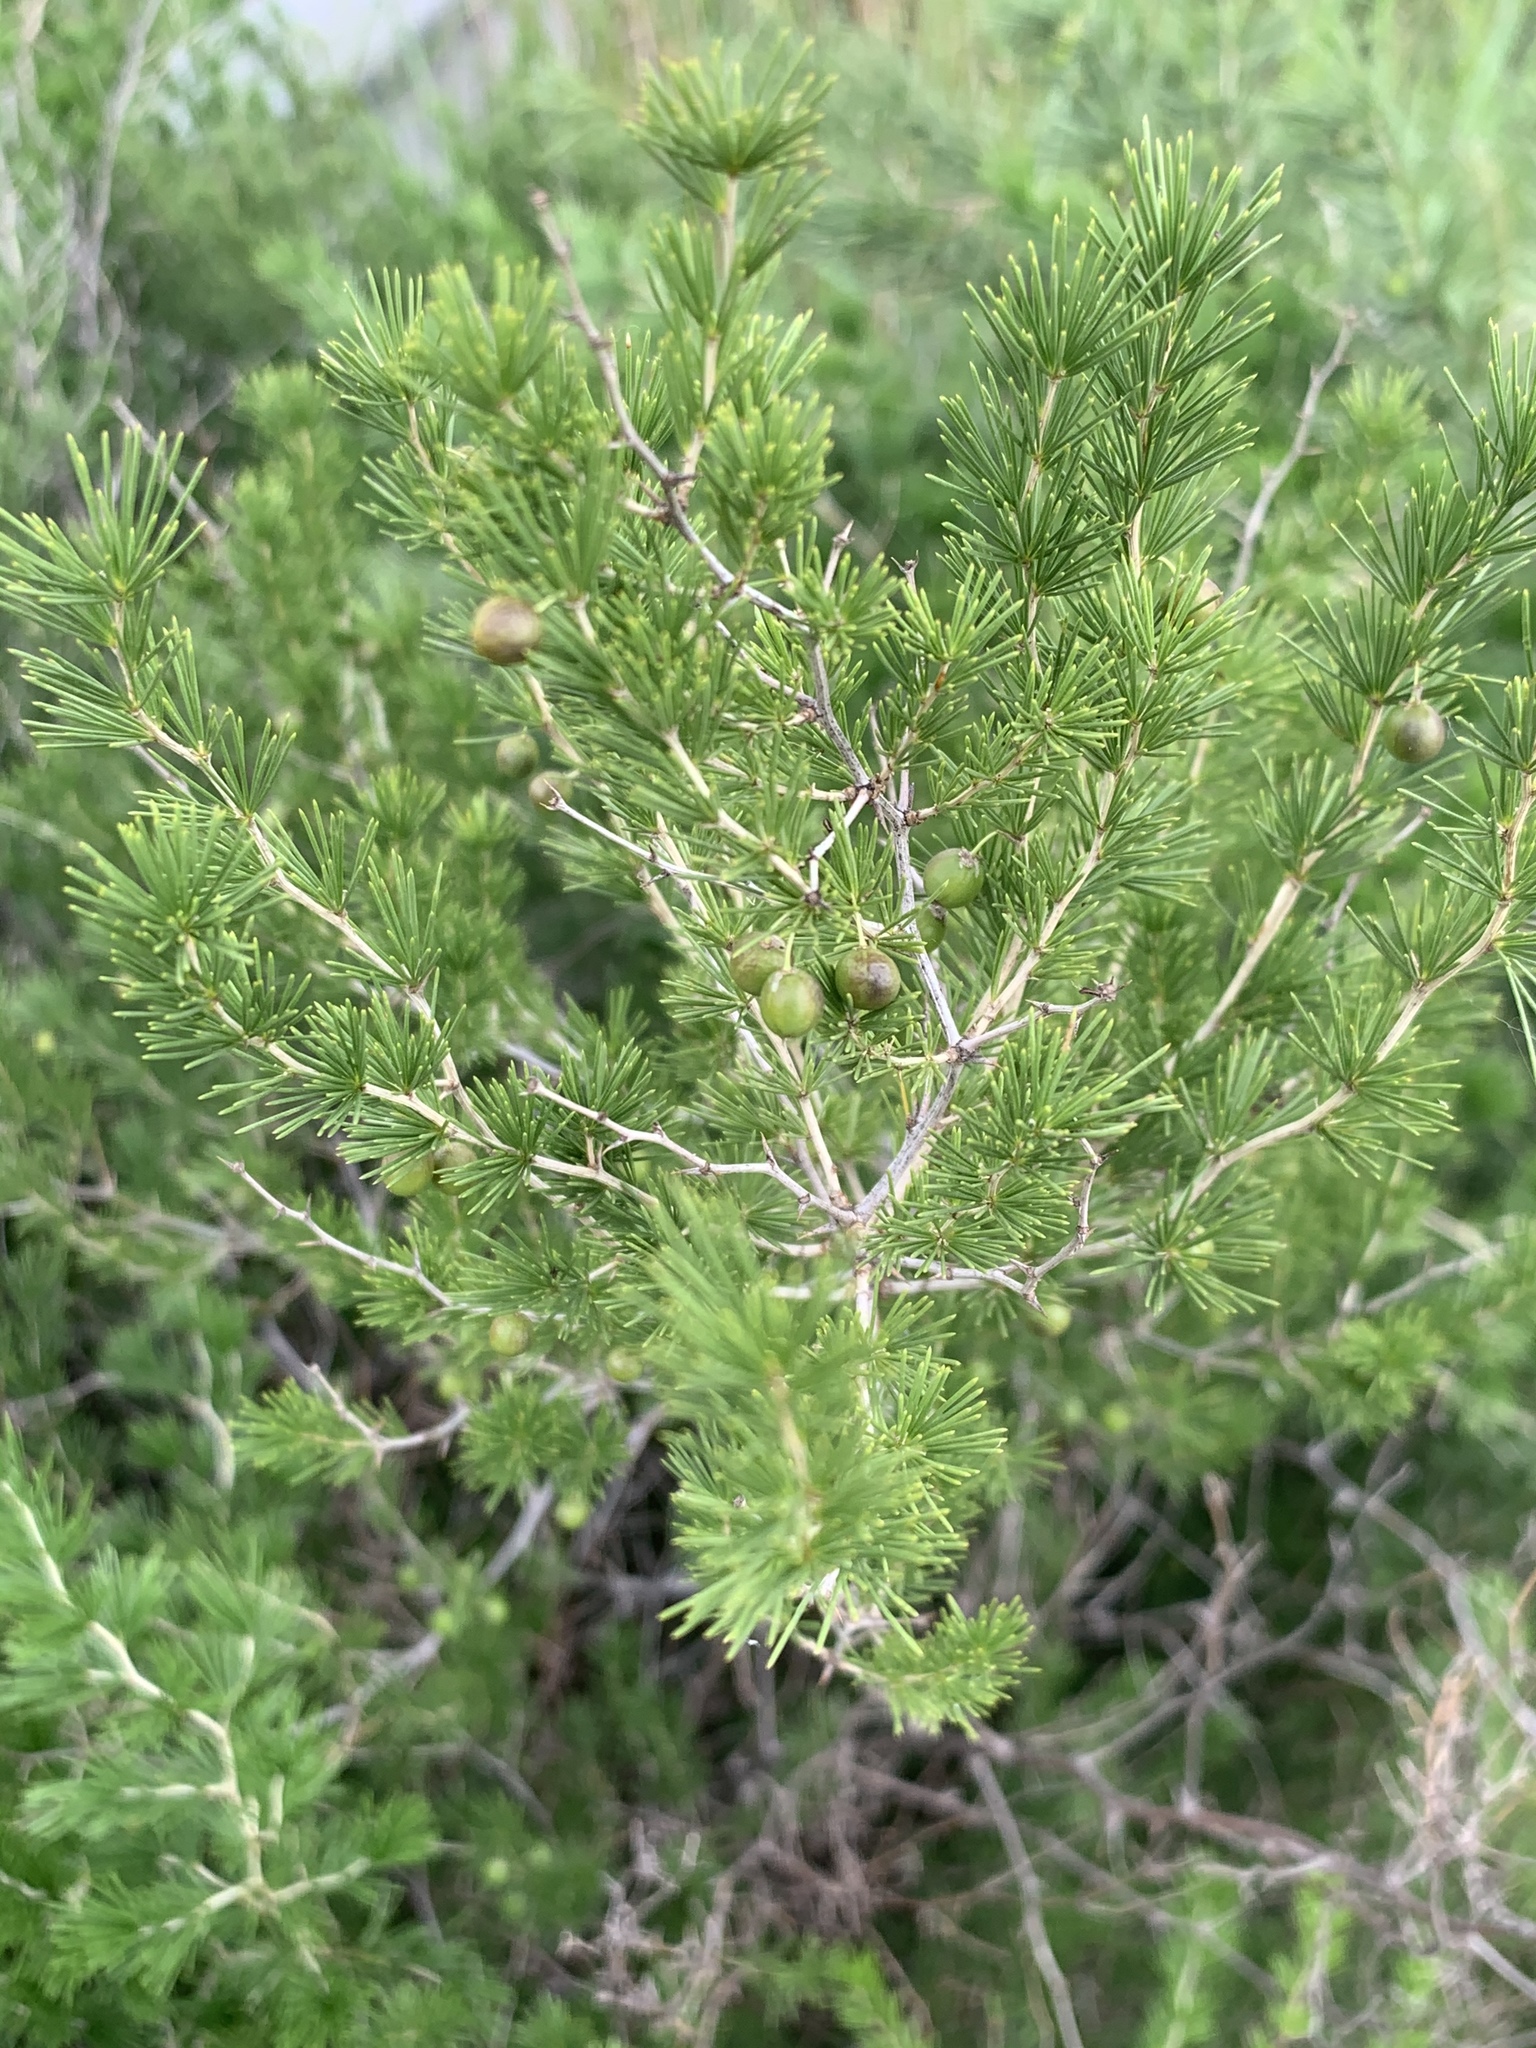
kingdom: Plantae
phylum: Tracheophyta
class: Liliopsida
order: Asparagales
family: Asparagaceae
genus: Asparagus
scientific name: Asparagus laricinus
